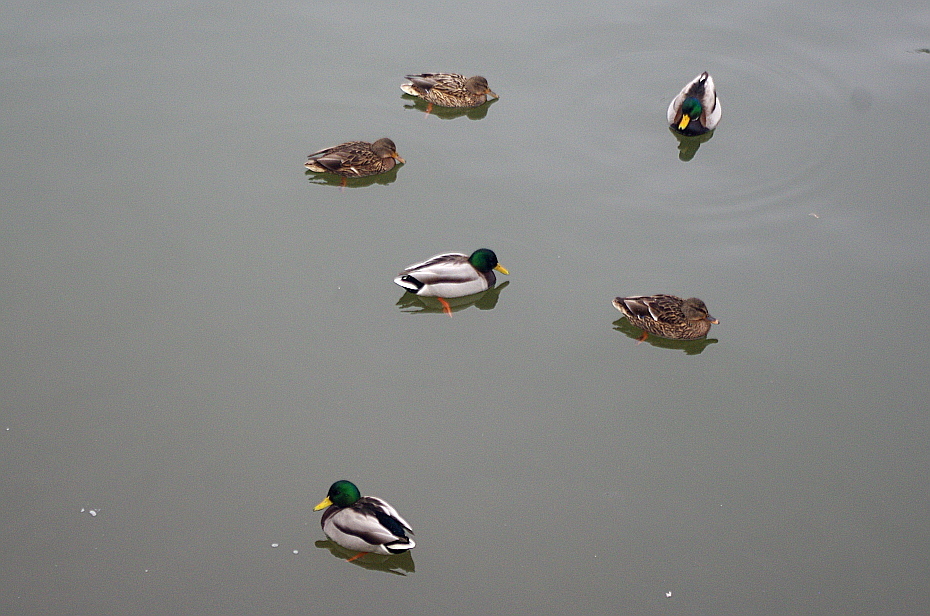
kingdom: Animalia
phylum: Chordata
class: Aves
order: Anseriformes
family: Anatidae
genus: Anas
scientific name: Anas platyrhynchos
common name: Mallard
